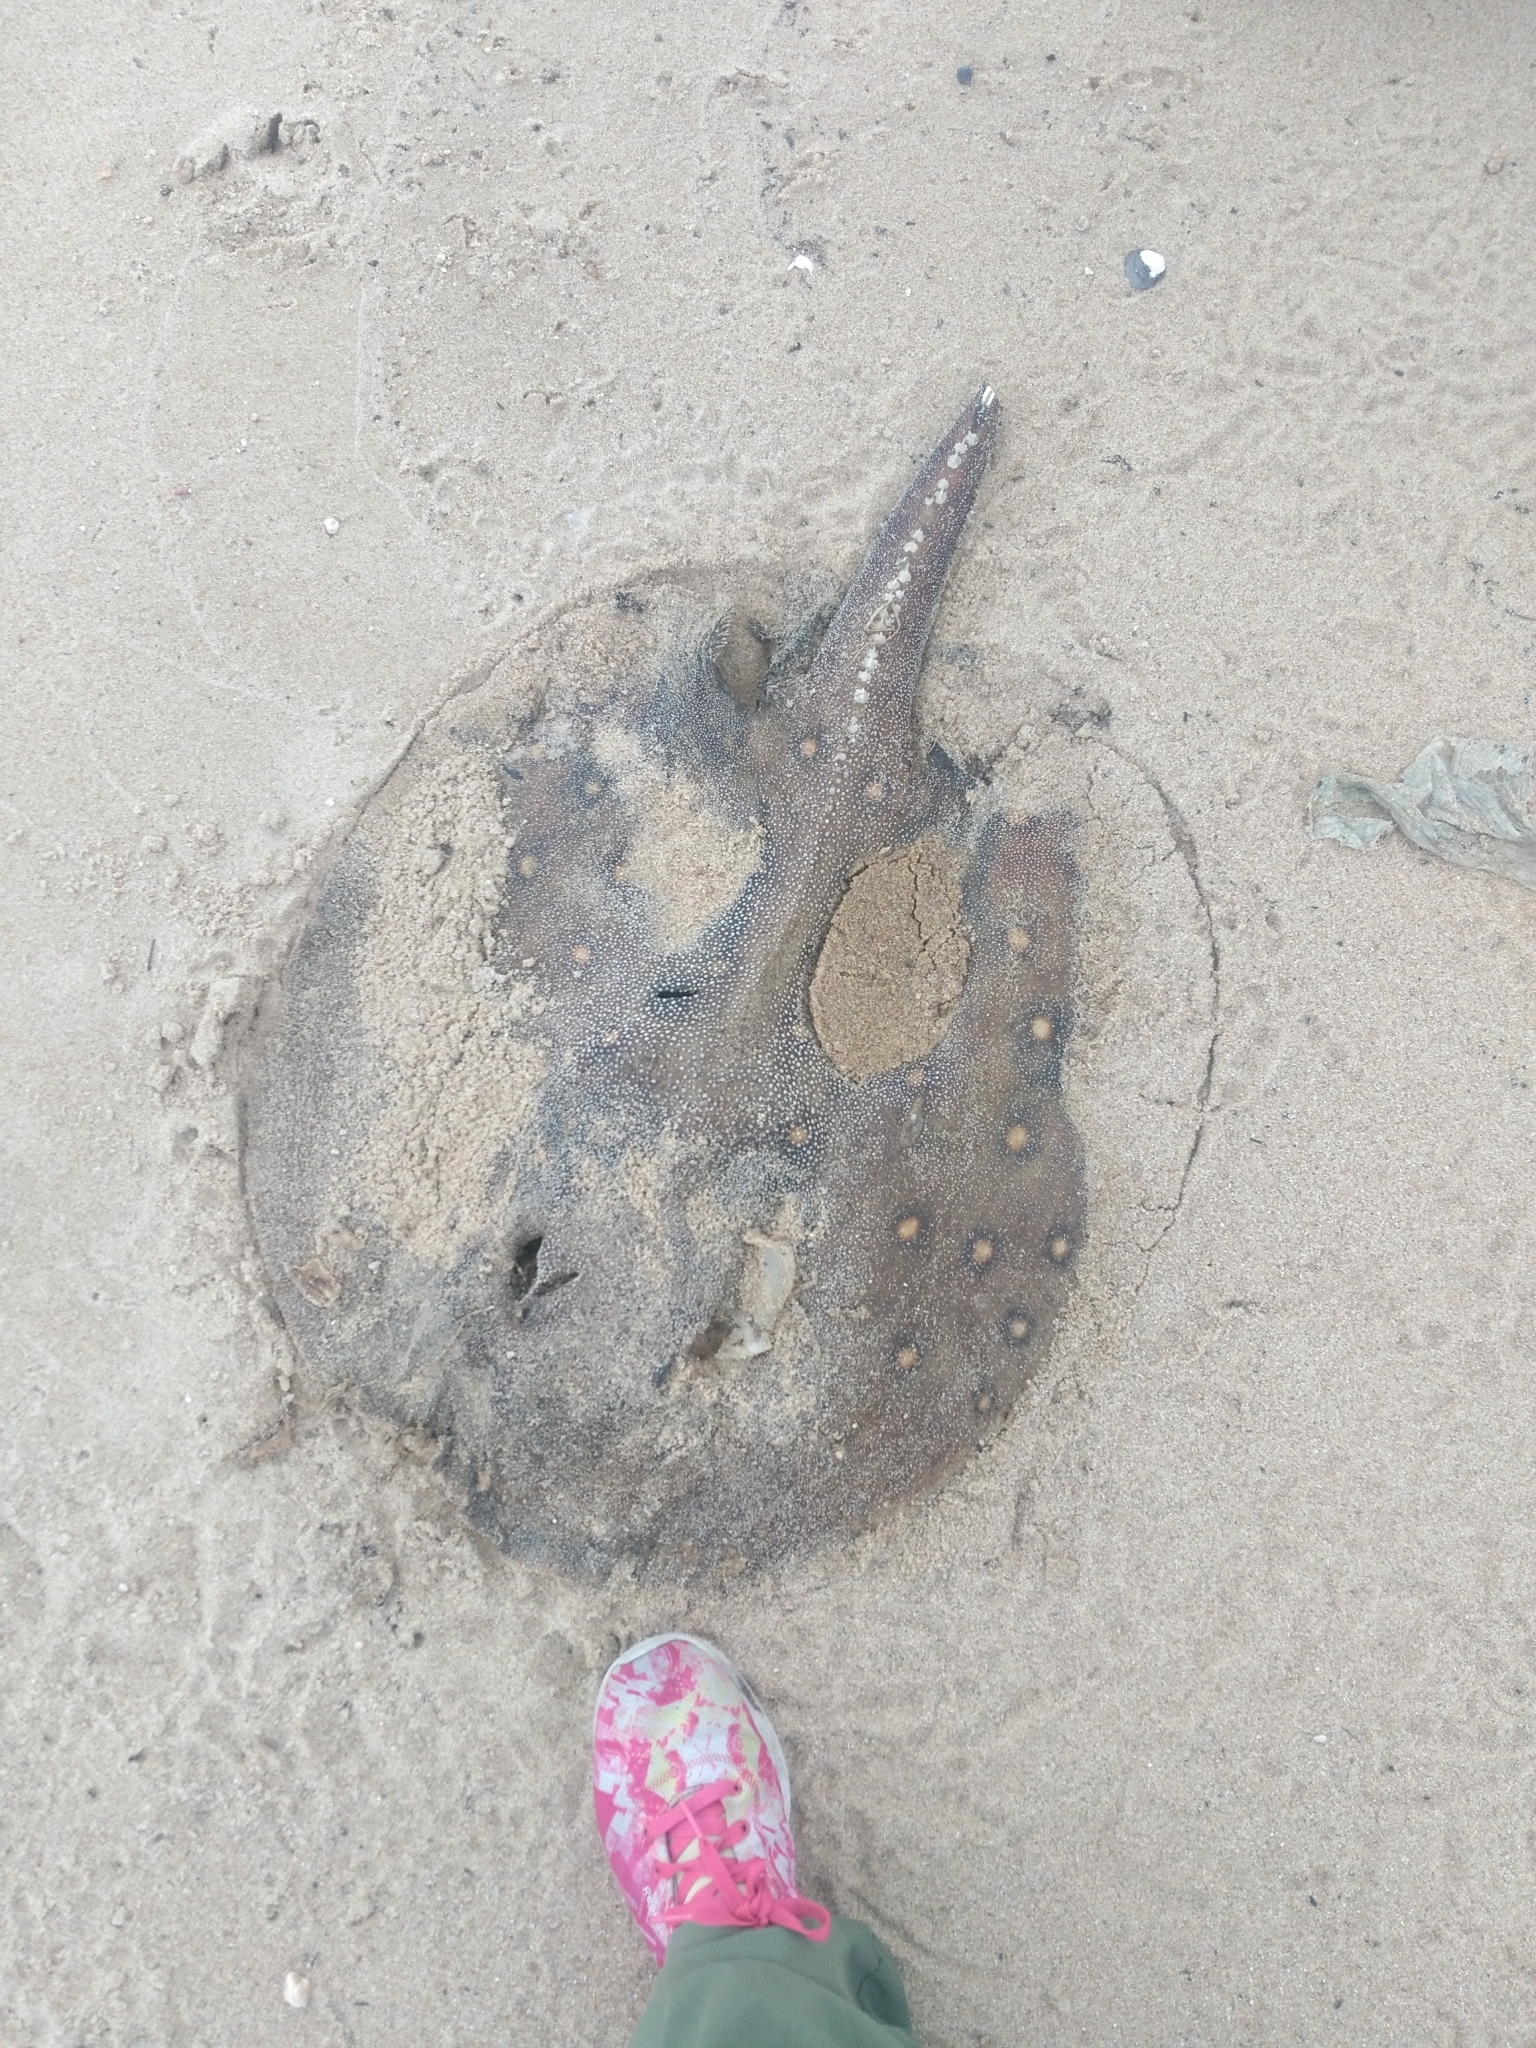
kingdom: Animalia
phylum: Chordata
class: Elasmobranchii
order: Myliobatiformes
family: Potamotrygonidae
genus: Potamotrygon
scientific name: Potamotrygon motoro
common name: South american freshwater stingray
